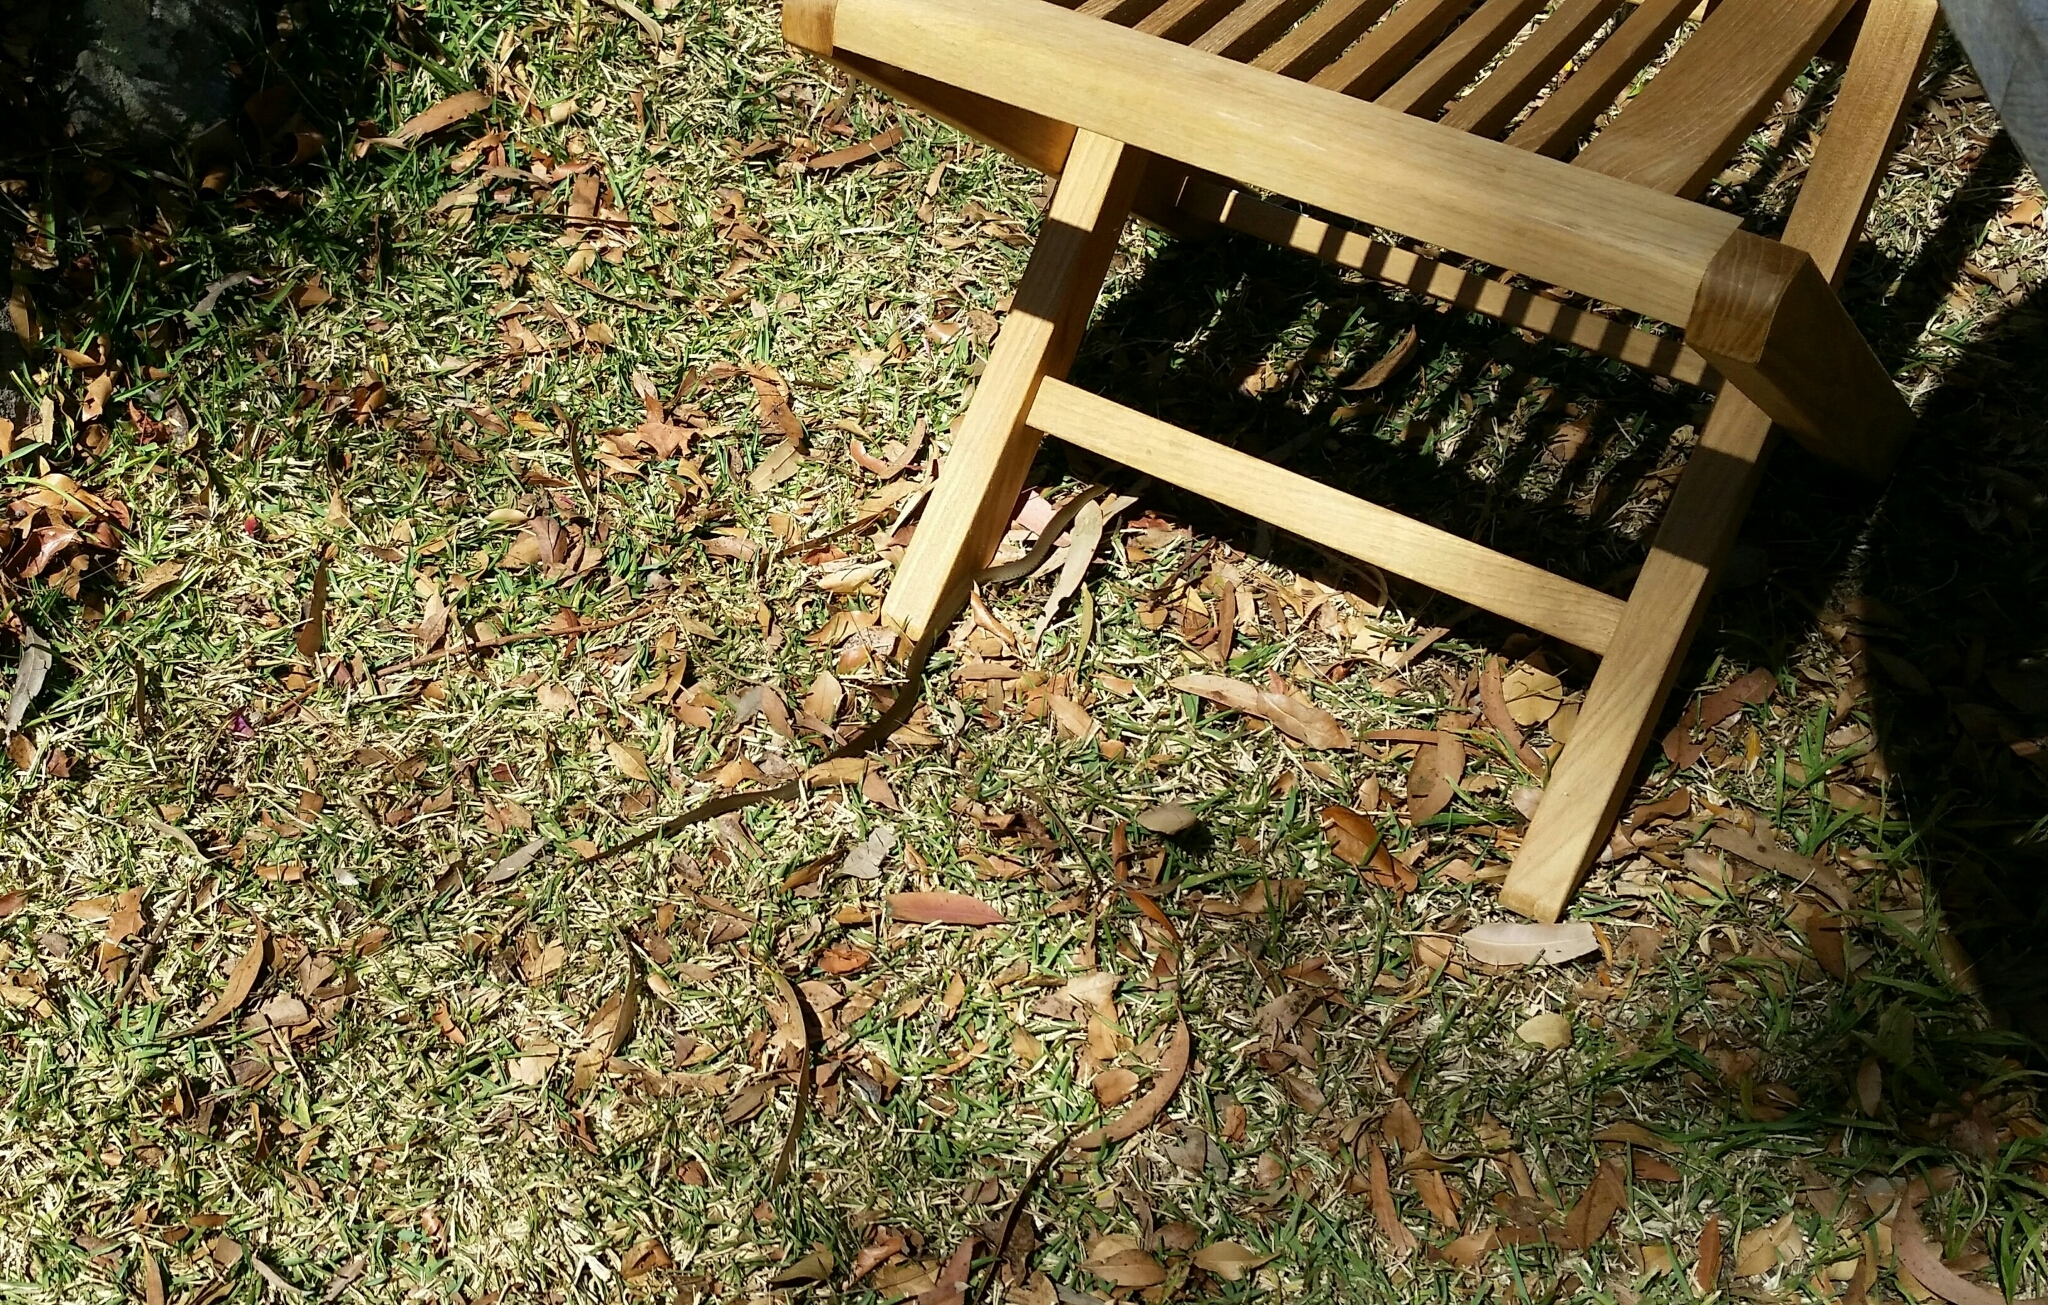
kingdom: Animalia
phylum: Chordata
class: Squamata
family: Elapidae
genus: Hemiaspis
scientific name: Hemiaspis signata
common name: Black-bellied swamp snake
